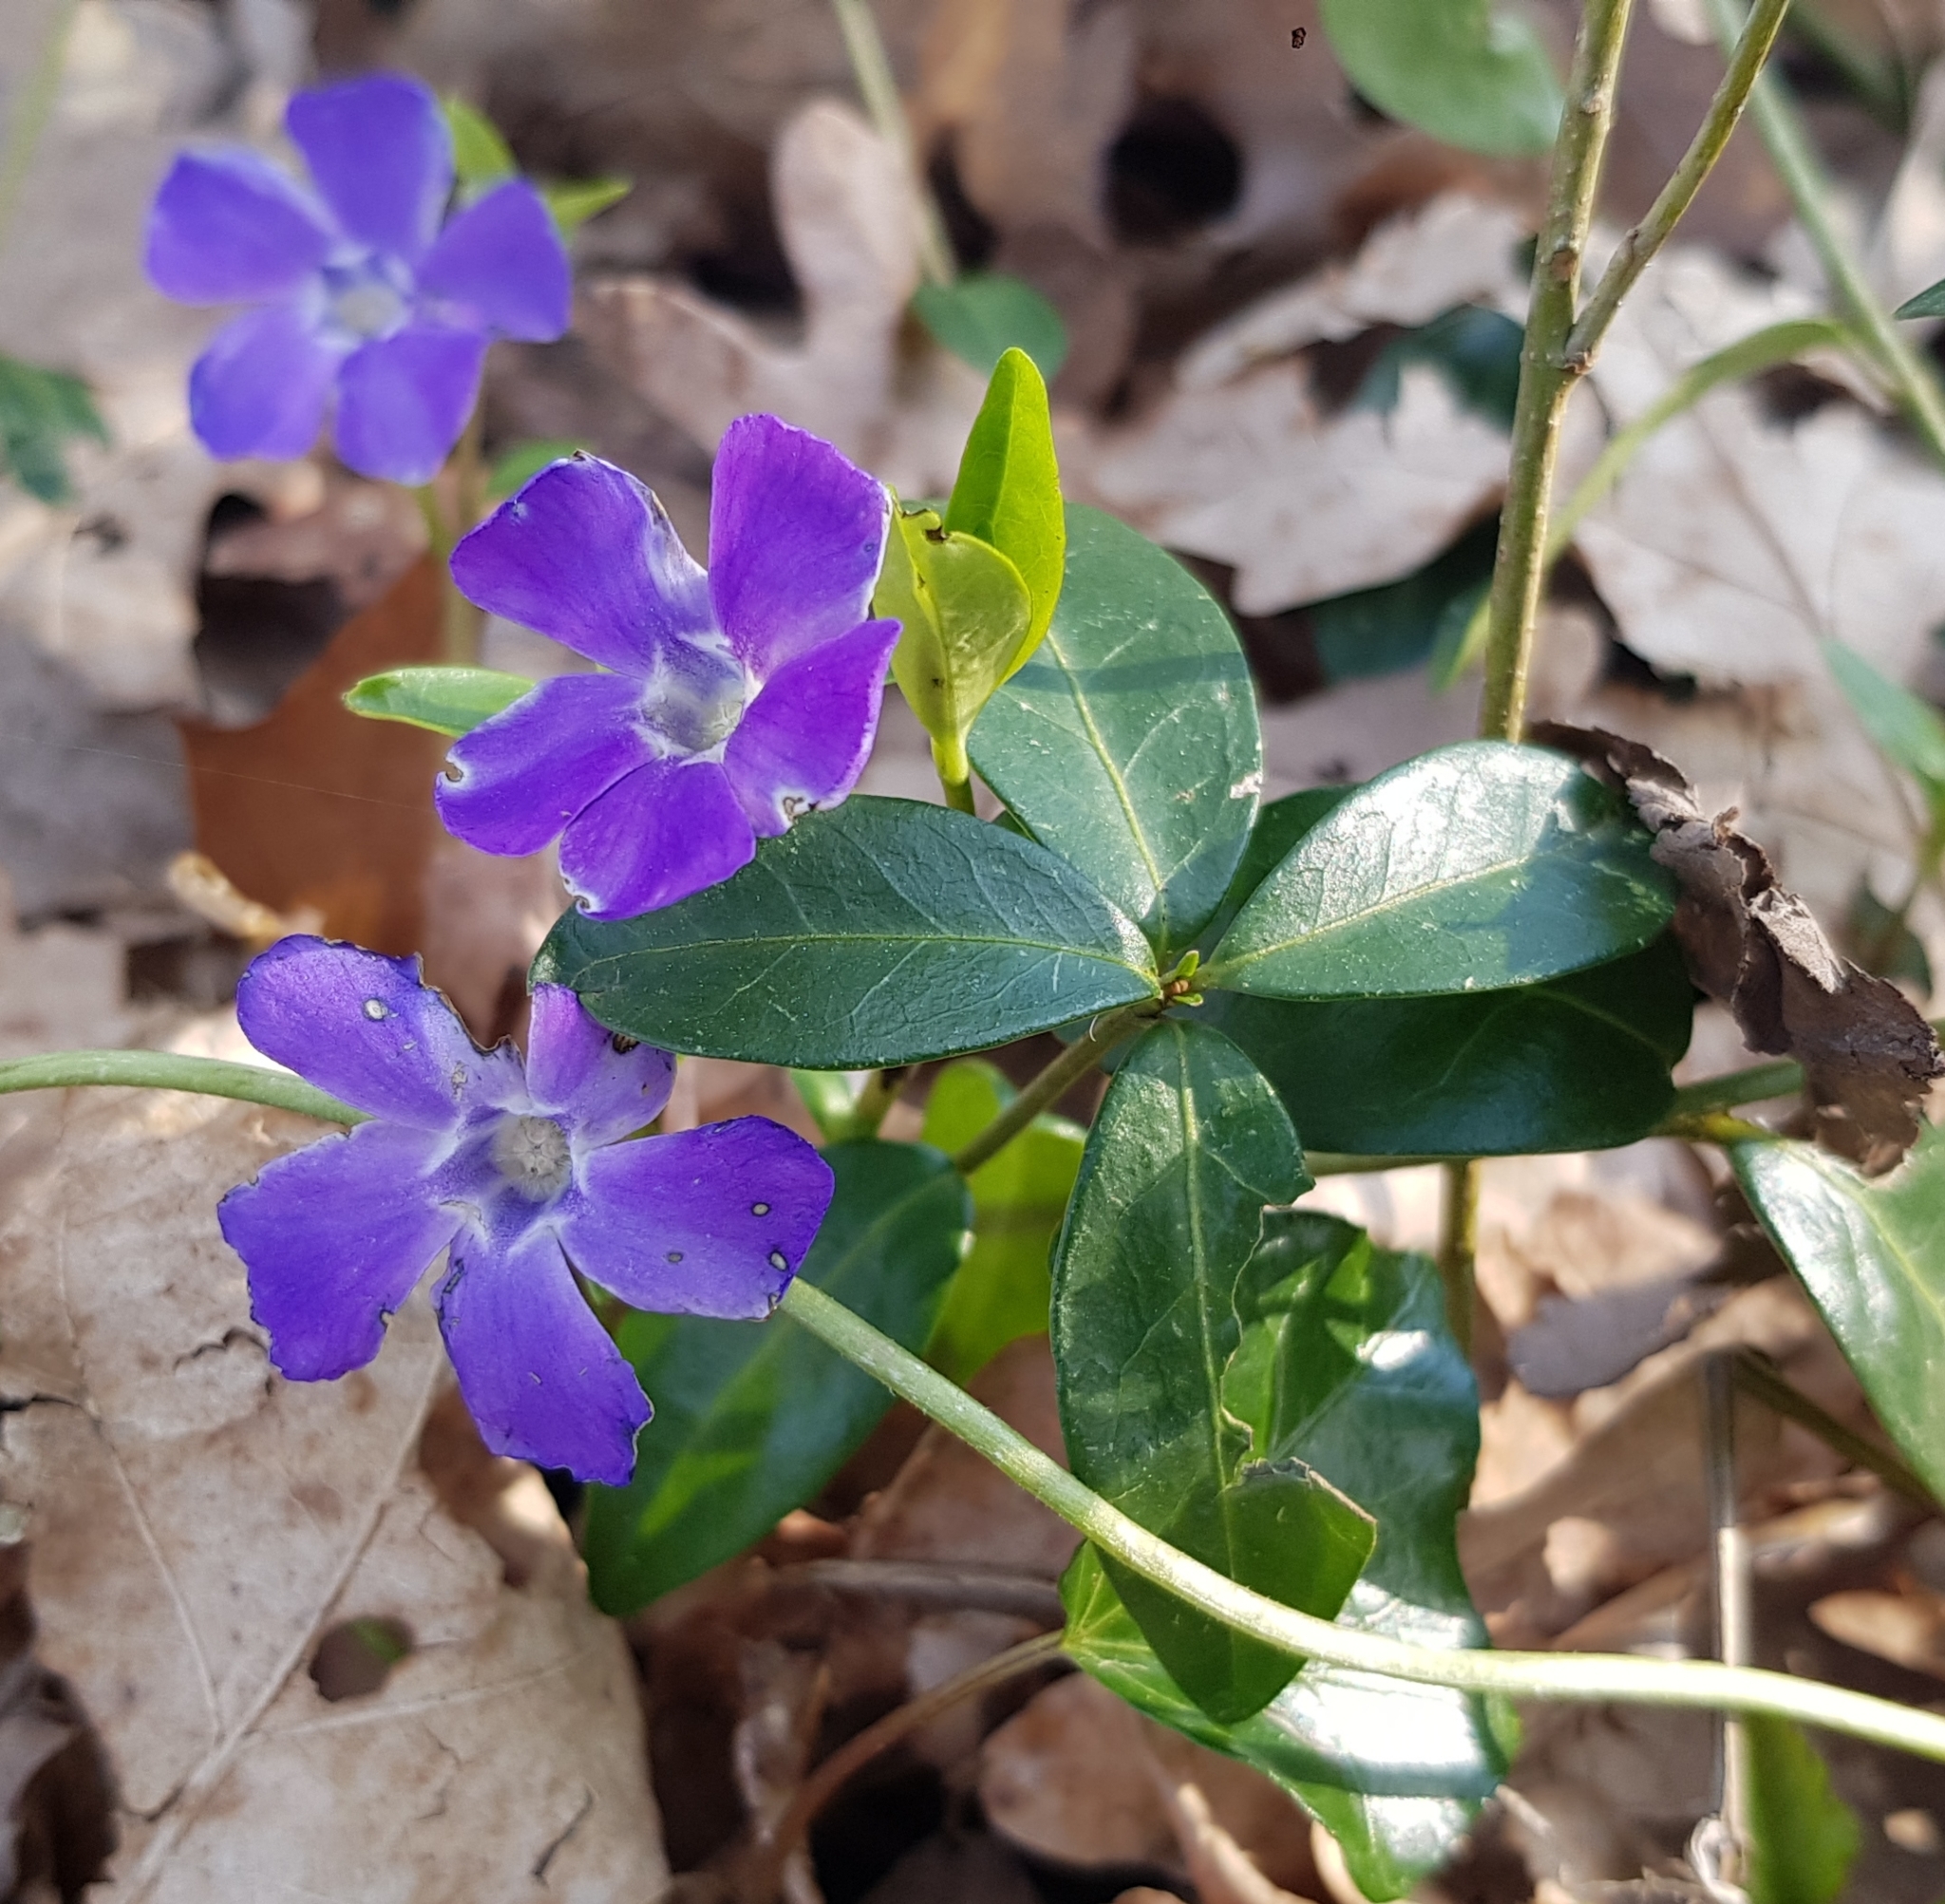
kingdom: Plantae
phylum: Tracheophyta
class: Magnoliopsida
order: Gentianales
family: Apocynaceae
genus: Vinca
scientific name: Vinca minor
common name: Lesser periwinkle
